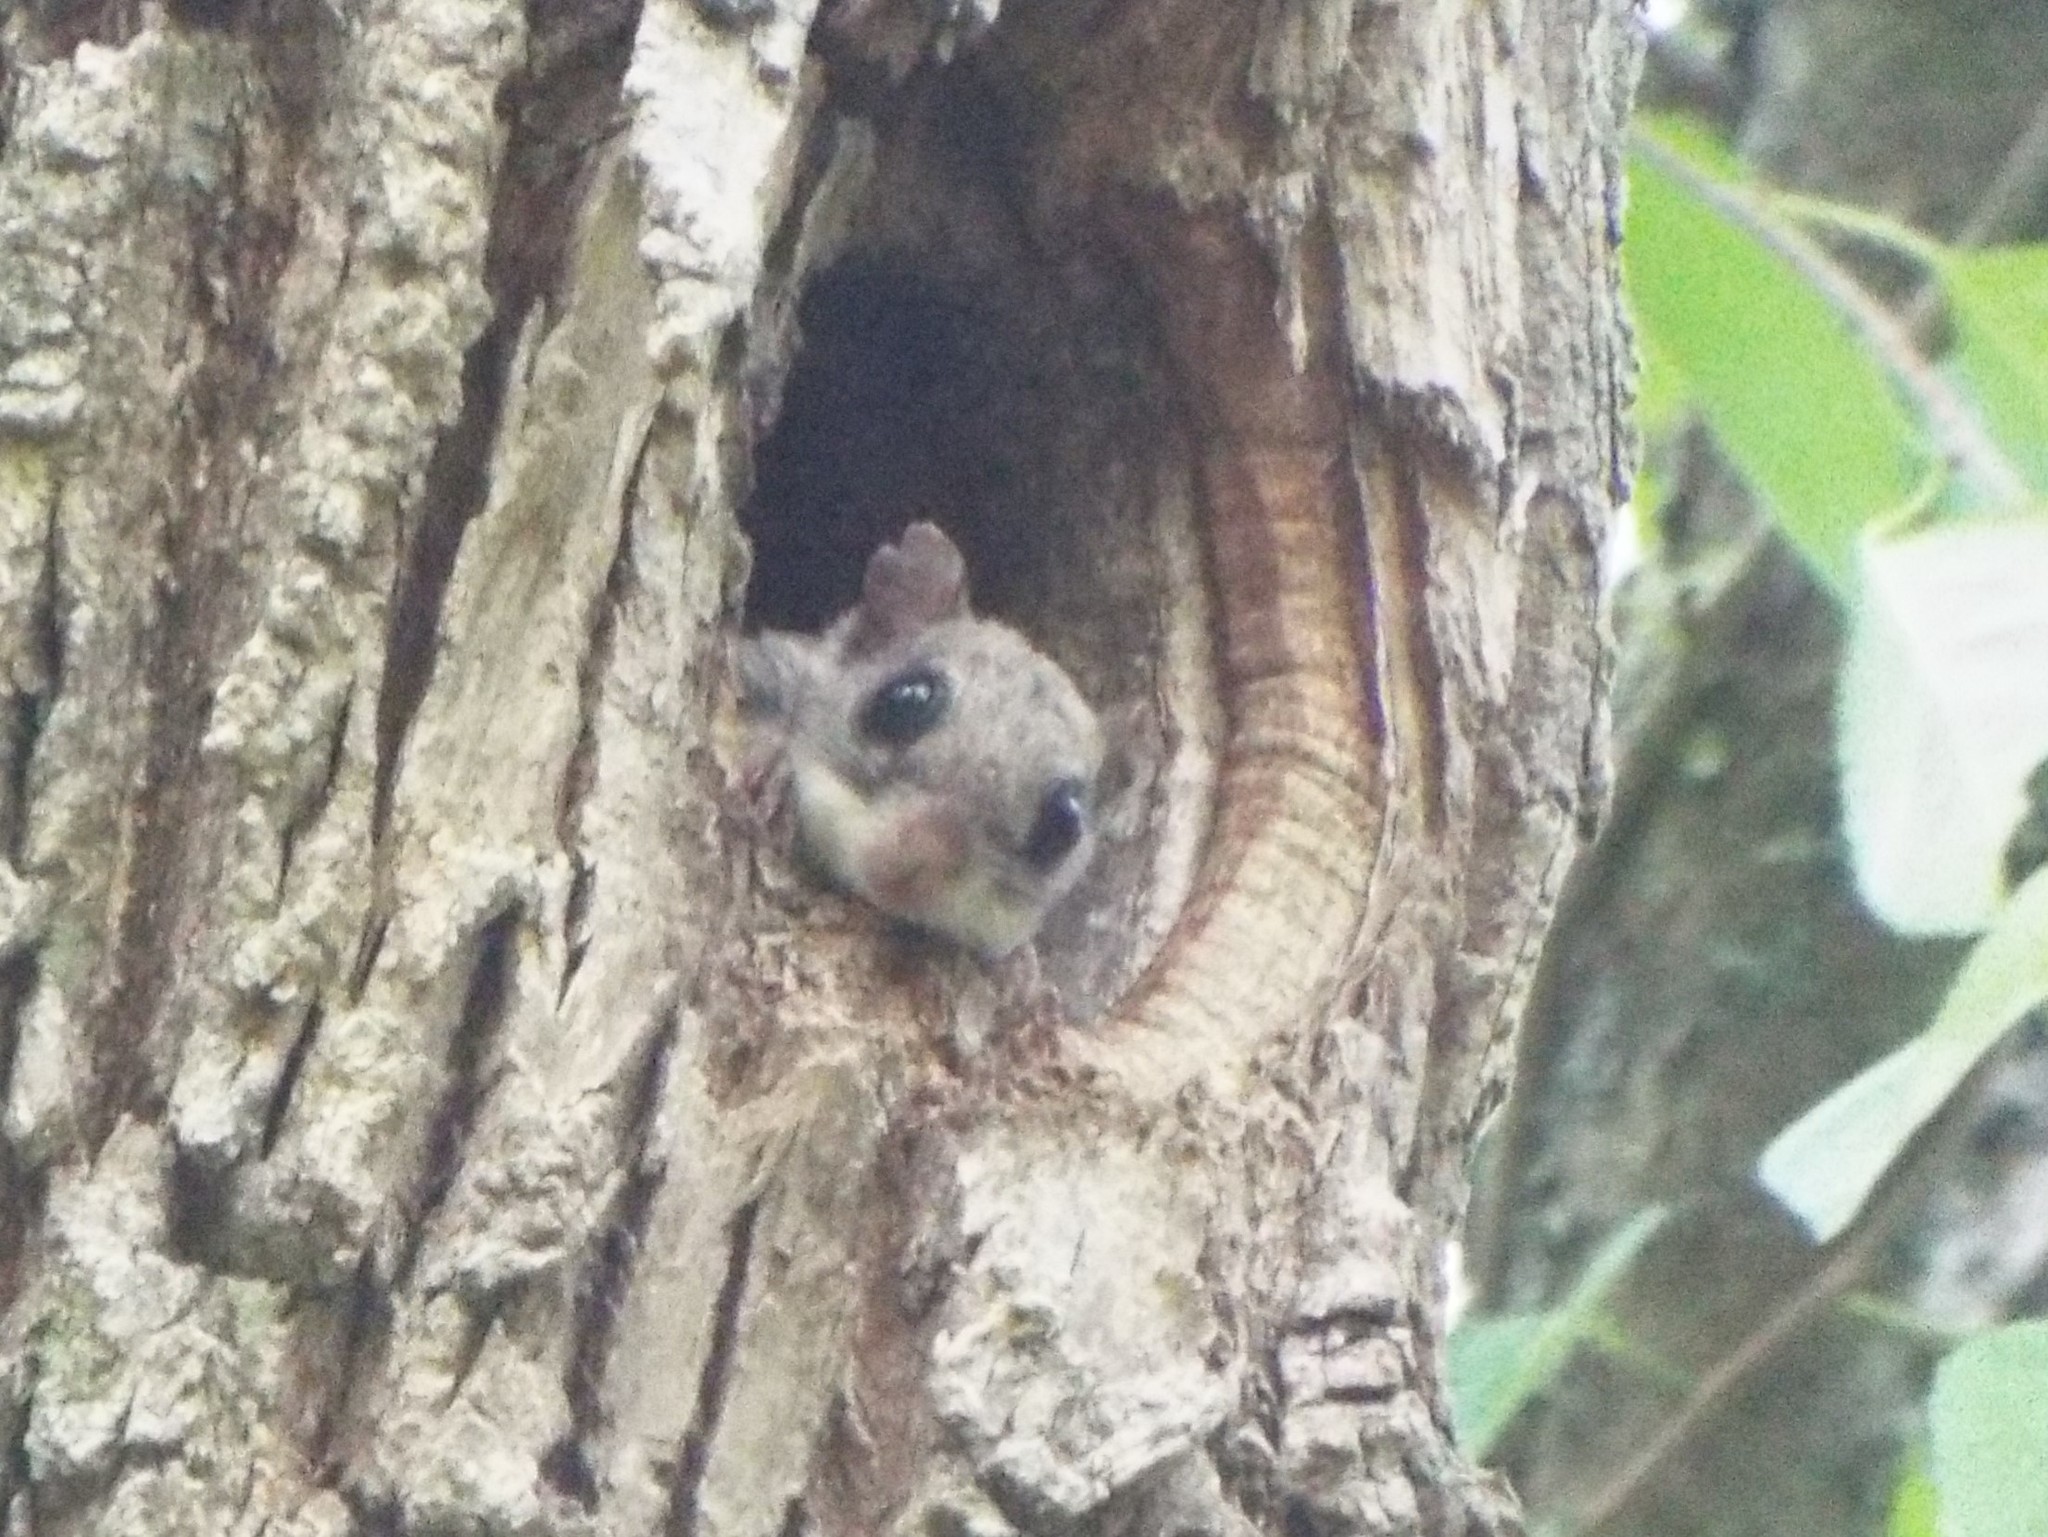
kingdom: Animalia
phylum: Chordata
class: Mammalia
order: Rodentia
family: Sciuridae
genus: Glaucomys
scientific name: Glaucomys volans
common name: Southern flying squirrel
